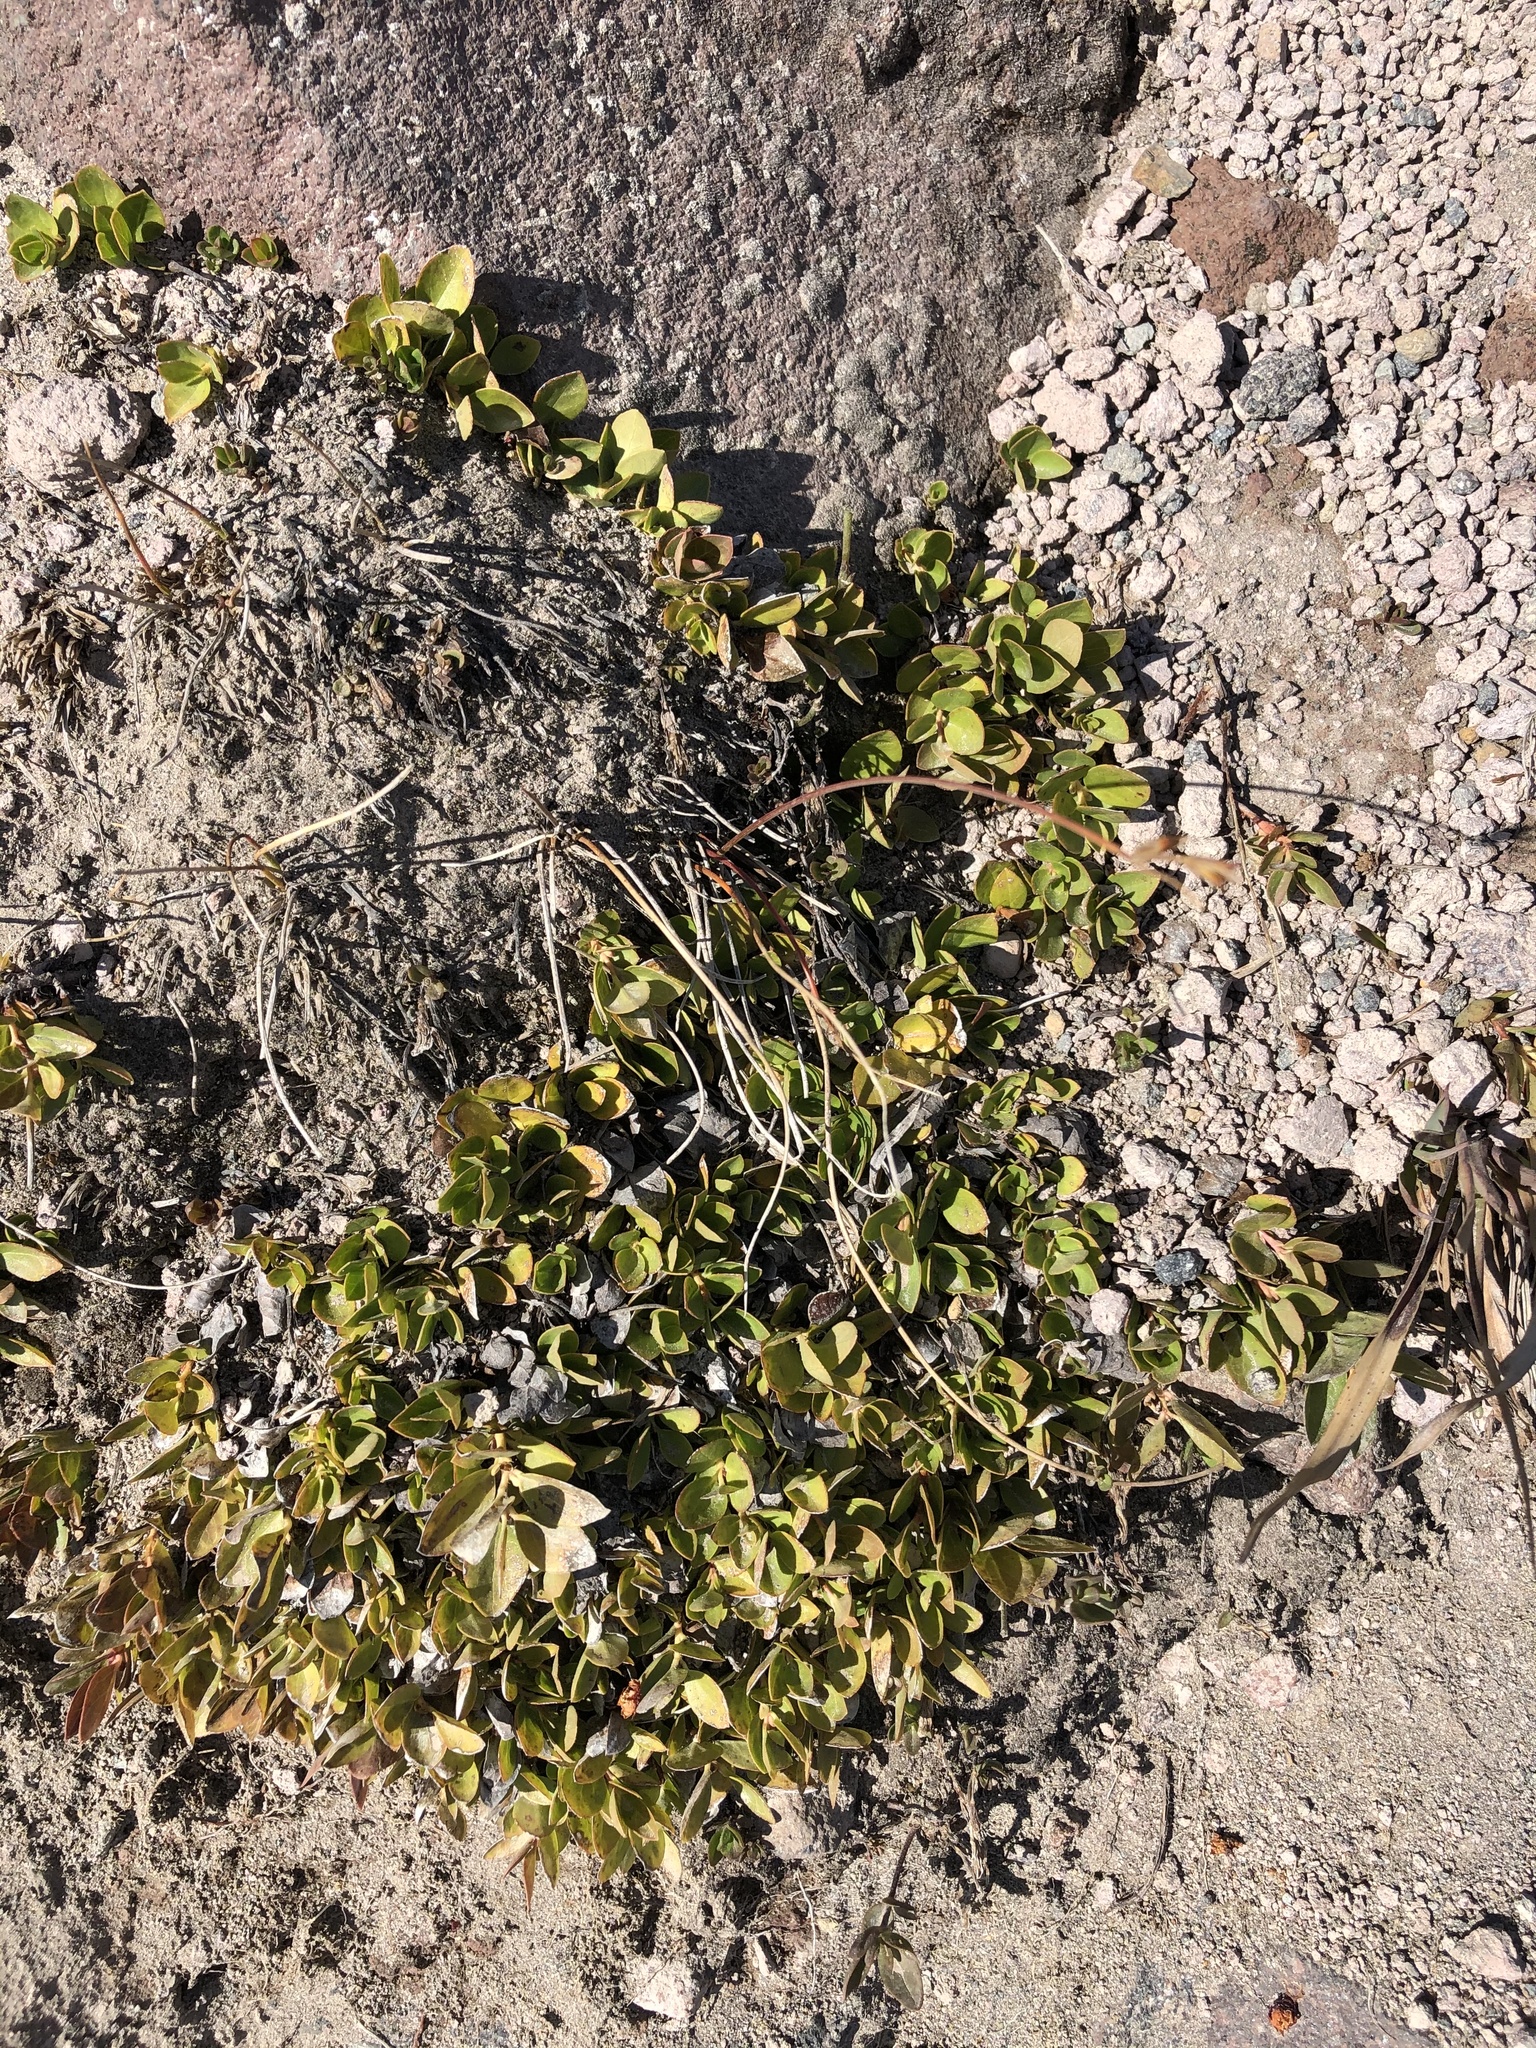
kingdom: Plantae
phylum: Tracheophyta
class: Magnoliopsida
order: Ericales
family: Ericaceae
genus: Gaultheria
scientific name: Gaultheria humifusa
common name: Alpine wintergreen
